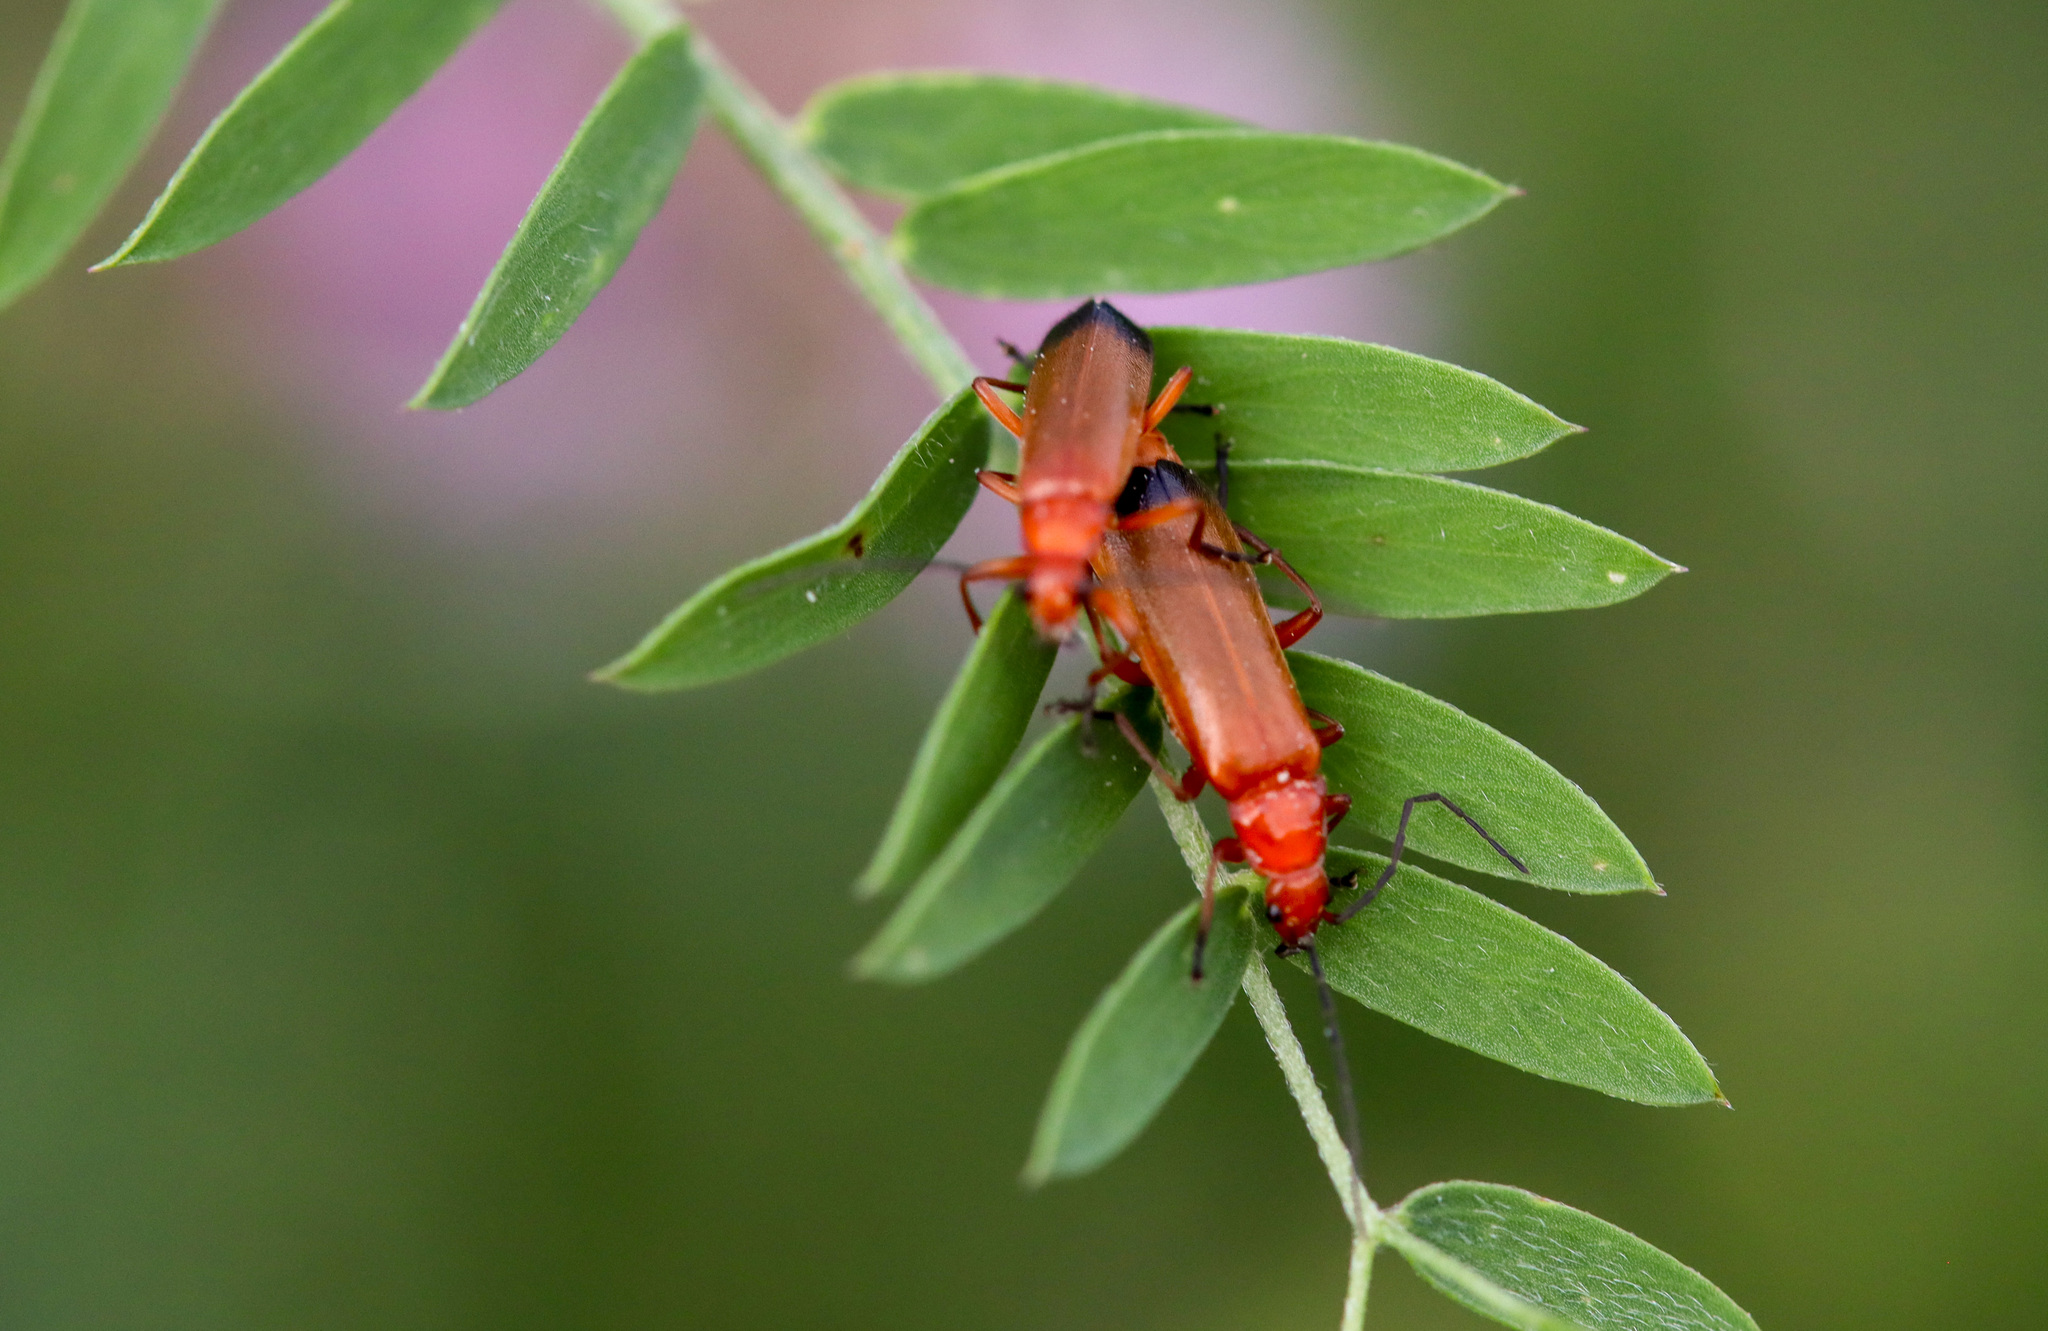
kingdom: Animalia
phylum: Arthropoda
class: Insecta
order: Coleoptera
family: Cantharidae
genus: Rhagonycha
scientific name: Rhagonycha fulva
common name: Common red soldier beetle
